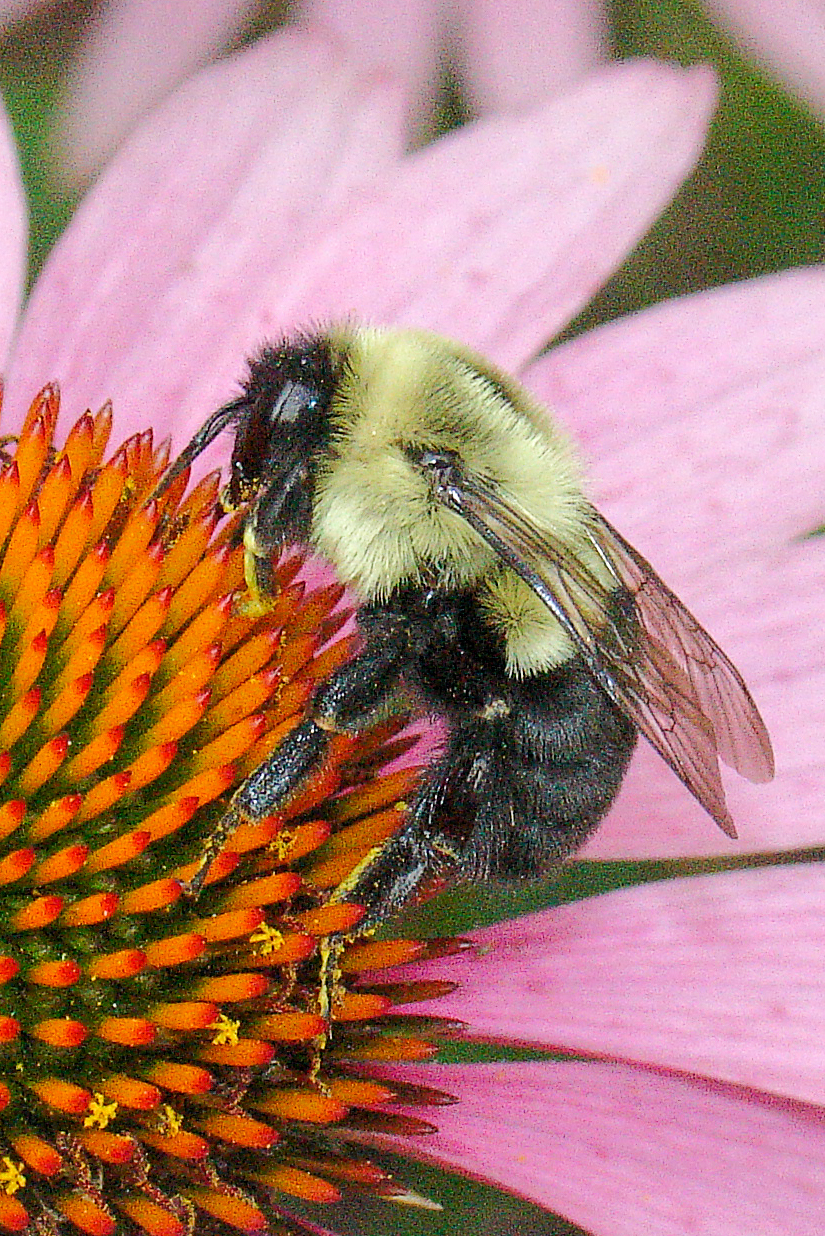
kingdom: Animalia
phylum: Arthropoda
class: Insecta
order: Hymenoptera
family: Apidae
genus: Bombus
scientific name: Bombus impatiens
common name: Common eastern bumble bee
